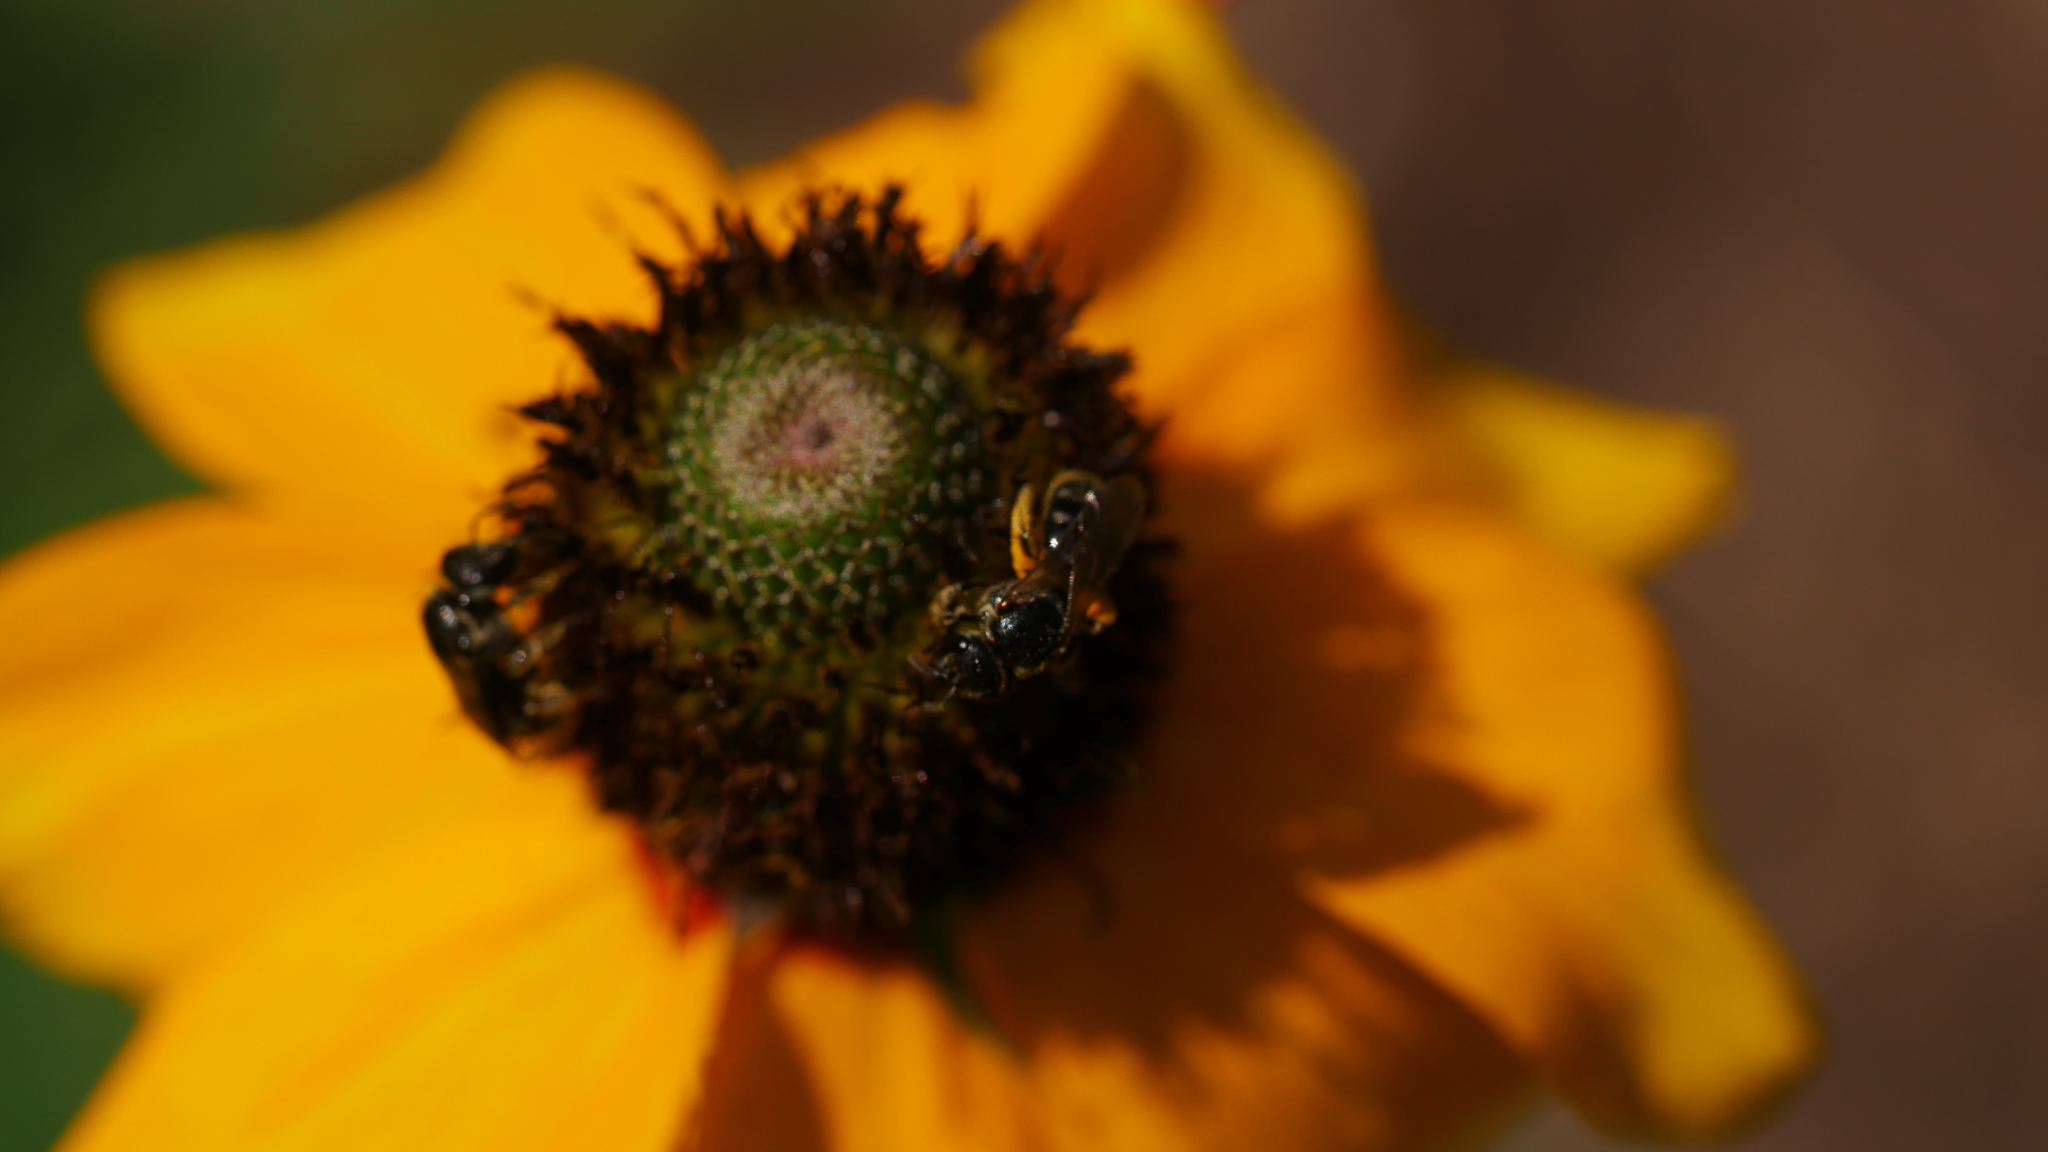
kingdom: Animalia
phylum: Arthropoda
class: Insecta
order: Hymenoptera
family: Halictidae
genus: Lasioglossum
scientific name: Lasioglossum
